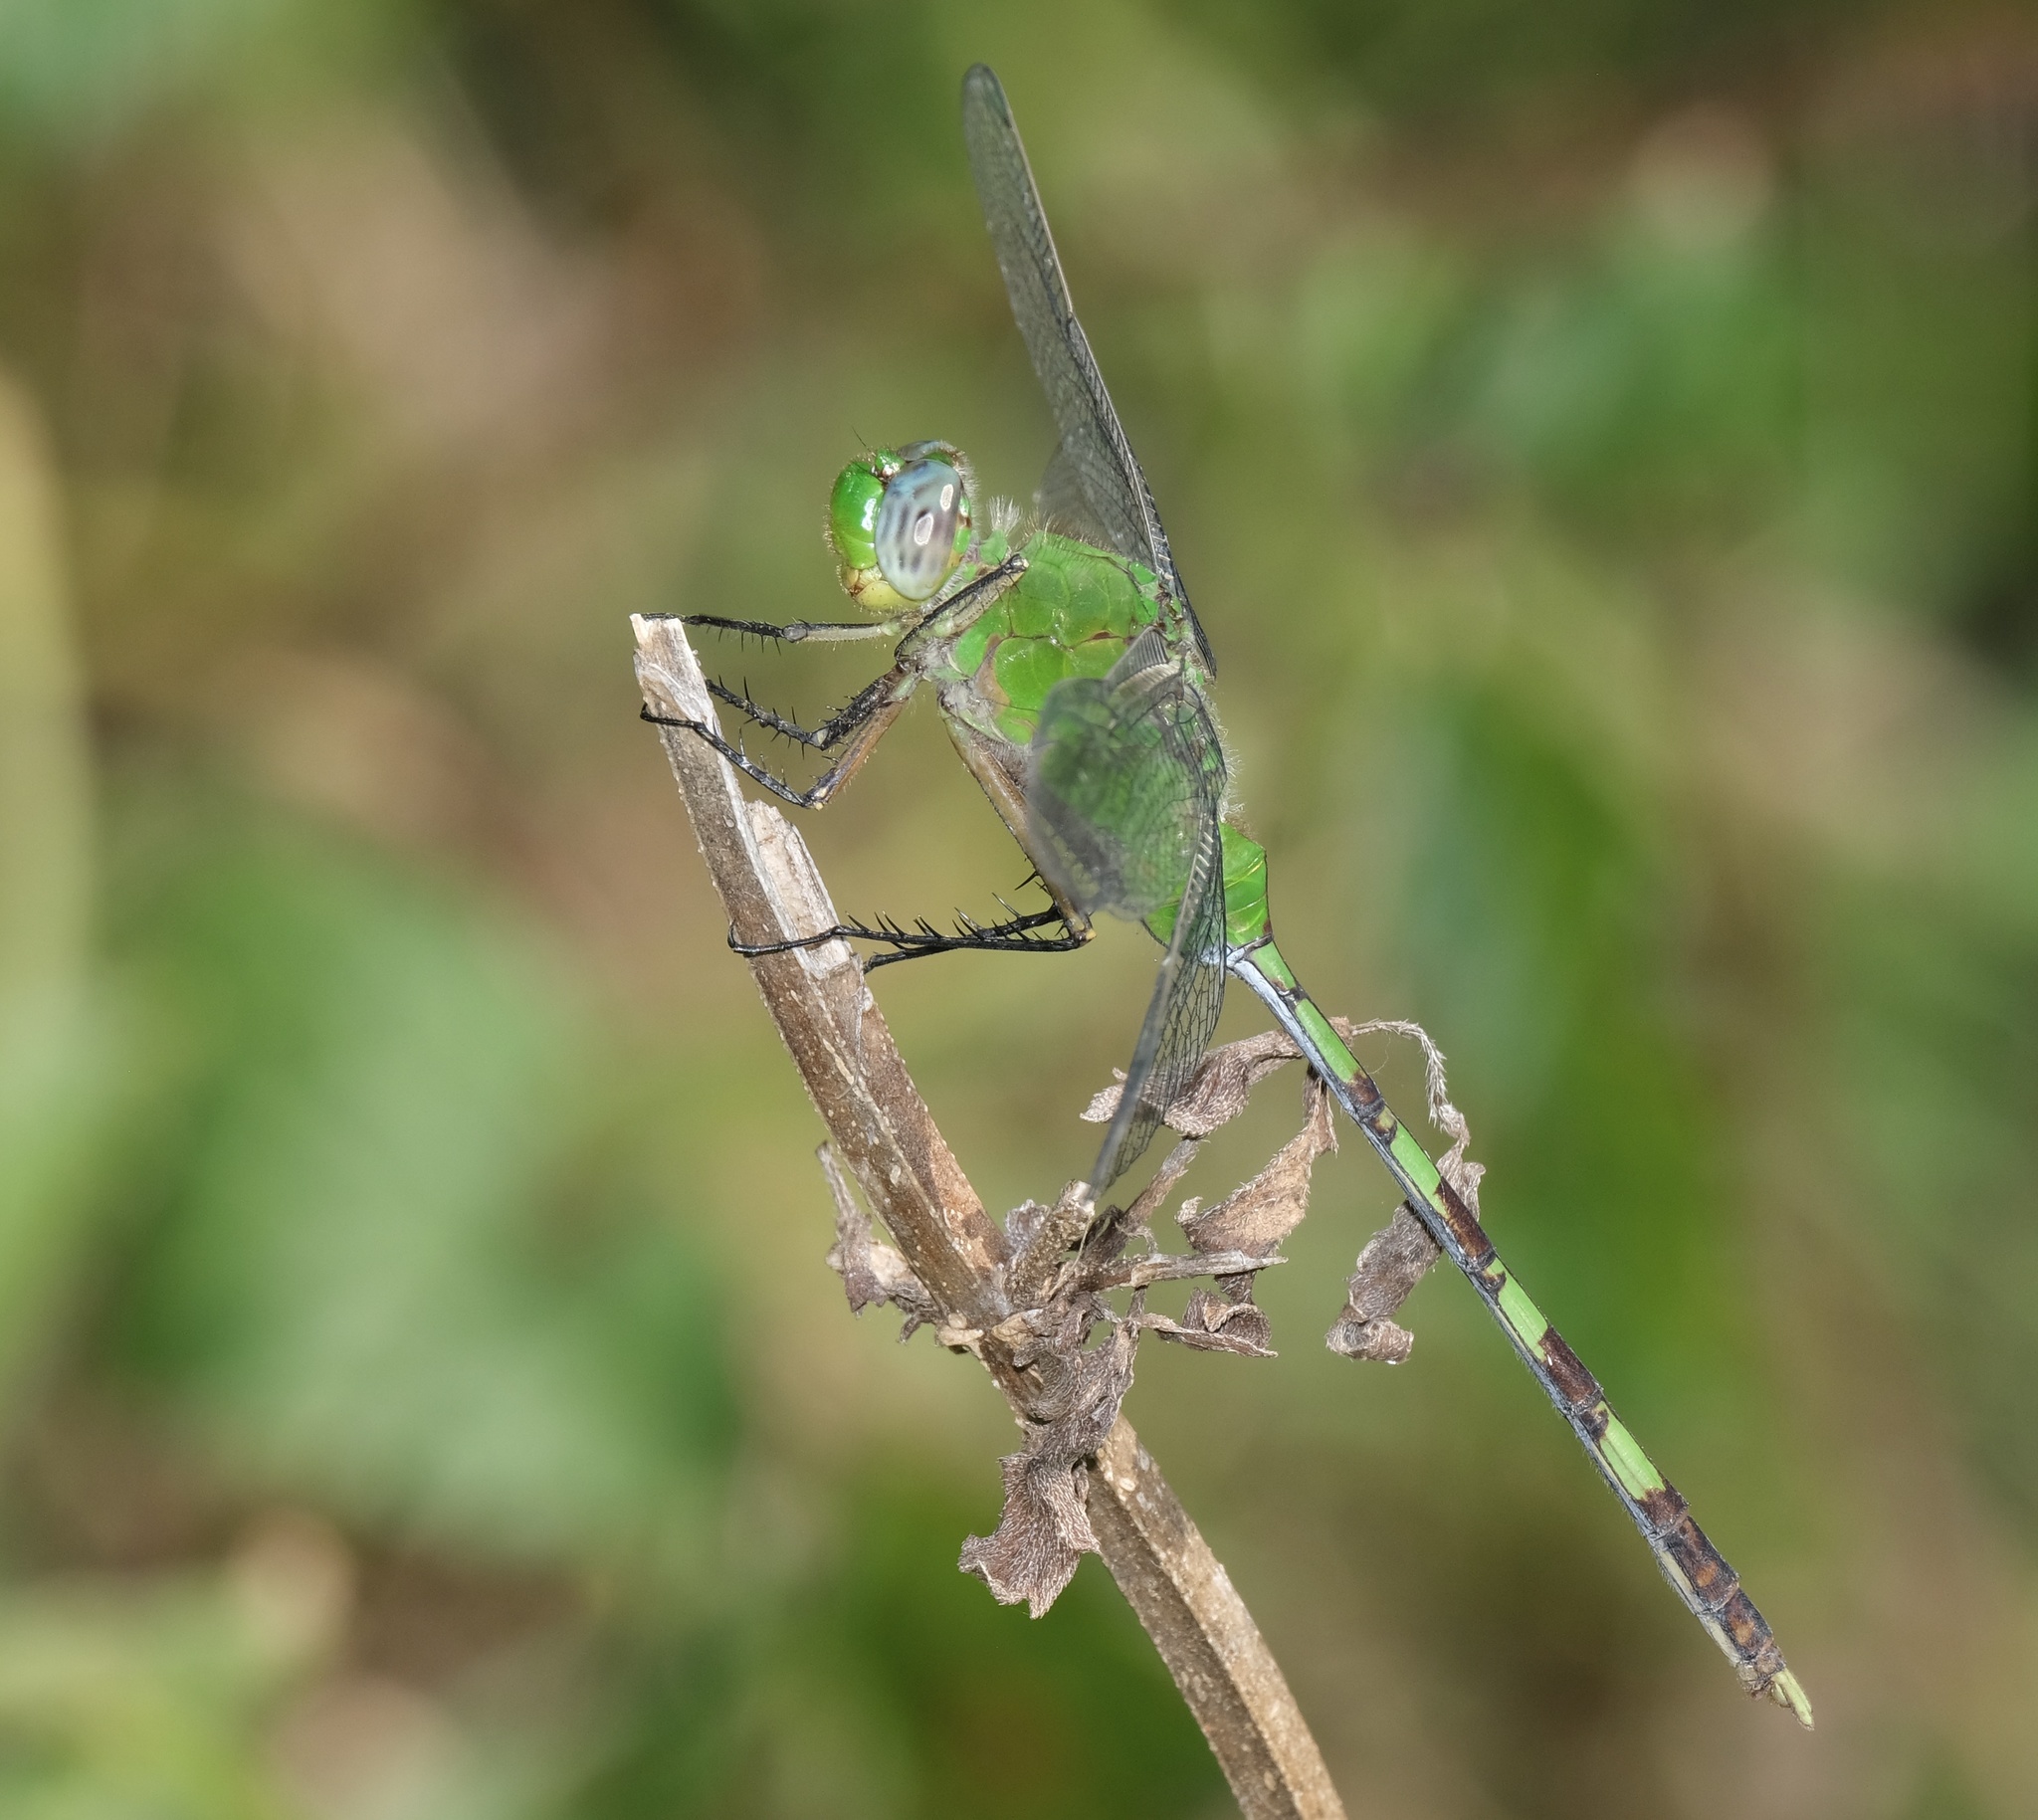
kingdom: Animalia
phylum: Arthropoda
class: Insecta
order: Odonata
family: Libellulidae
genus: Erythemis
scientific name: Erythemis vesiculosa
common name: Great pondhawk
